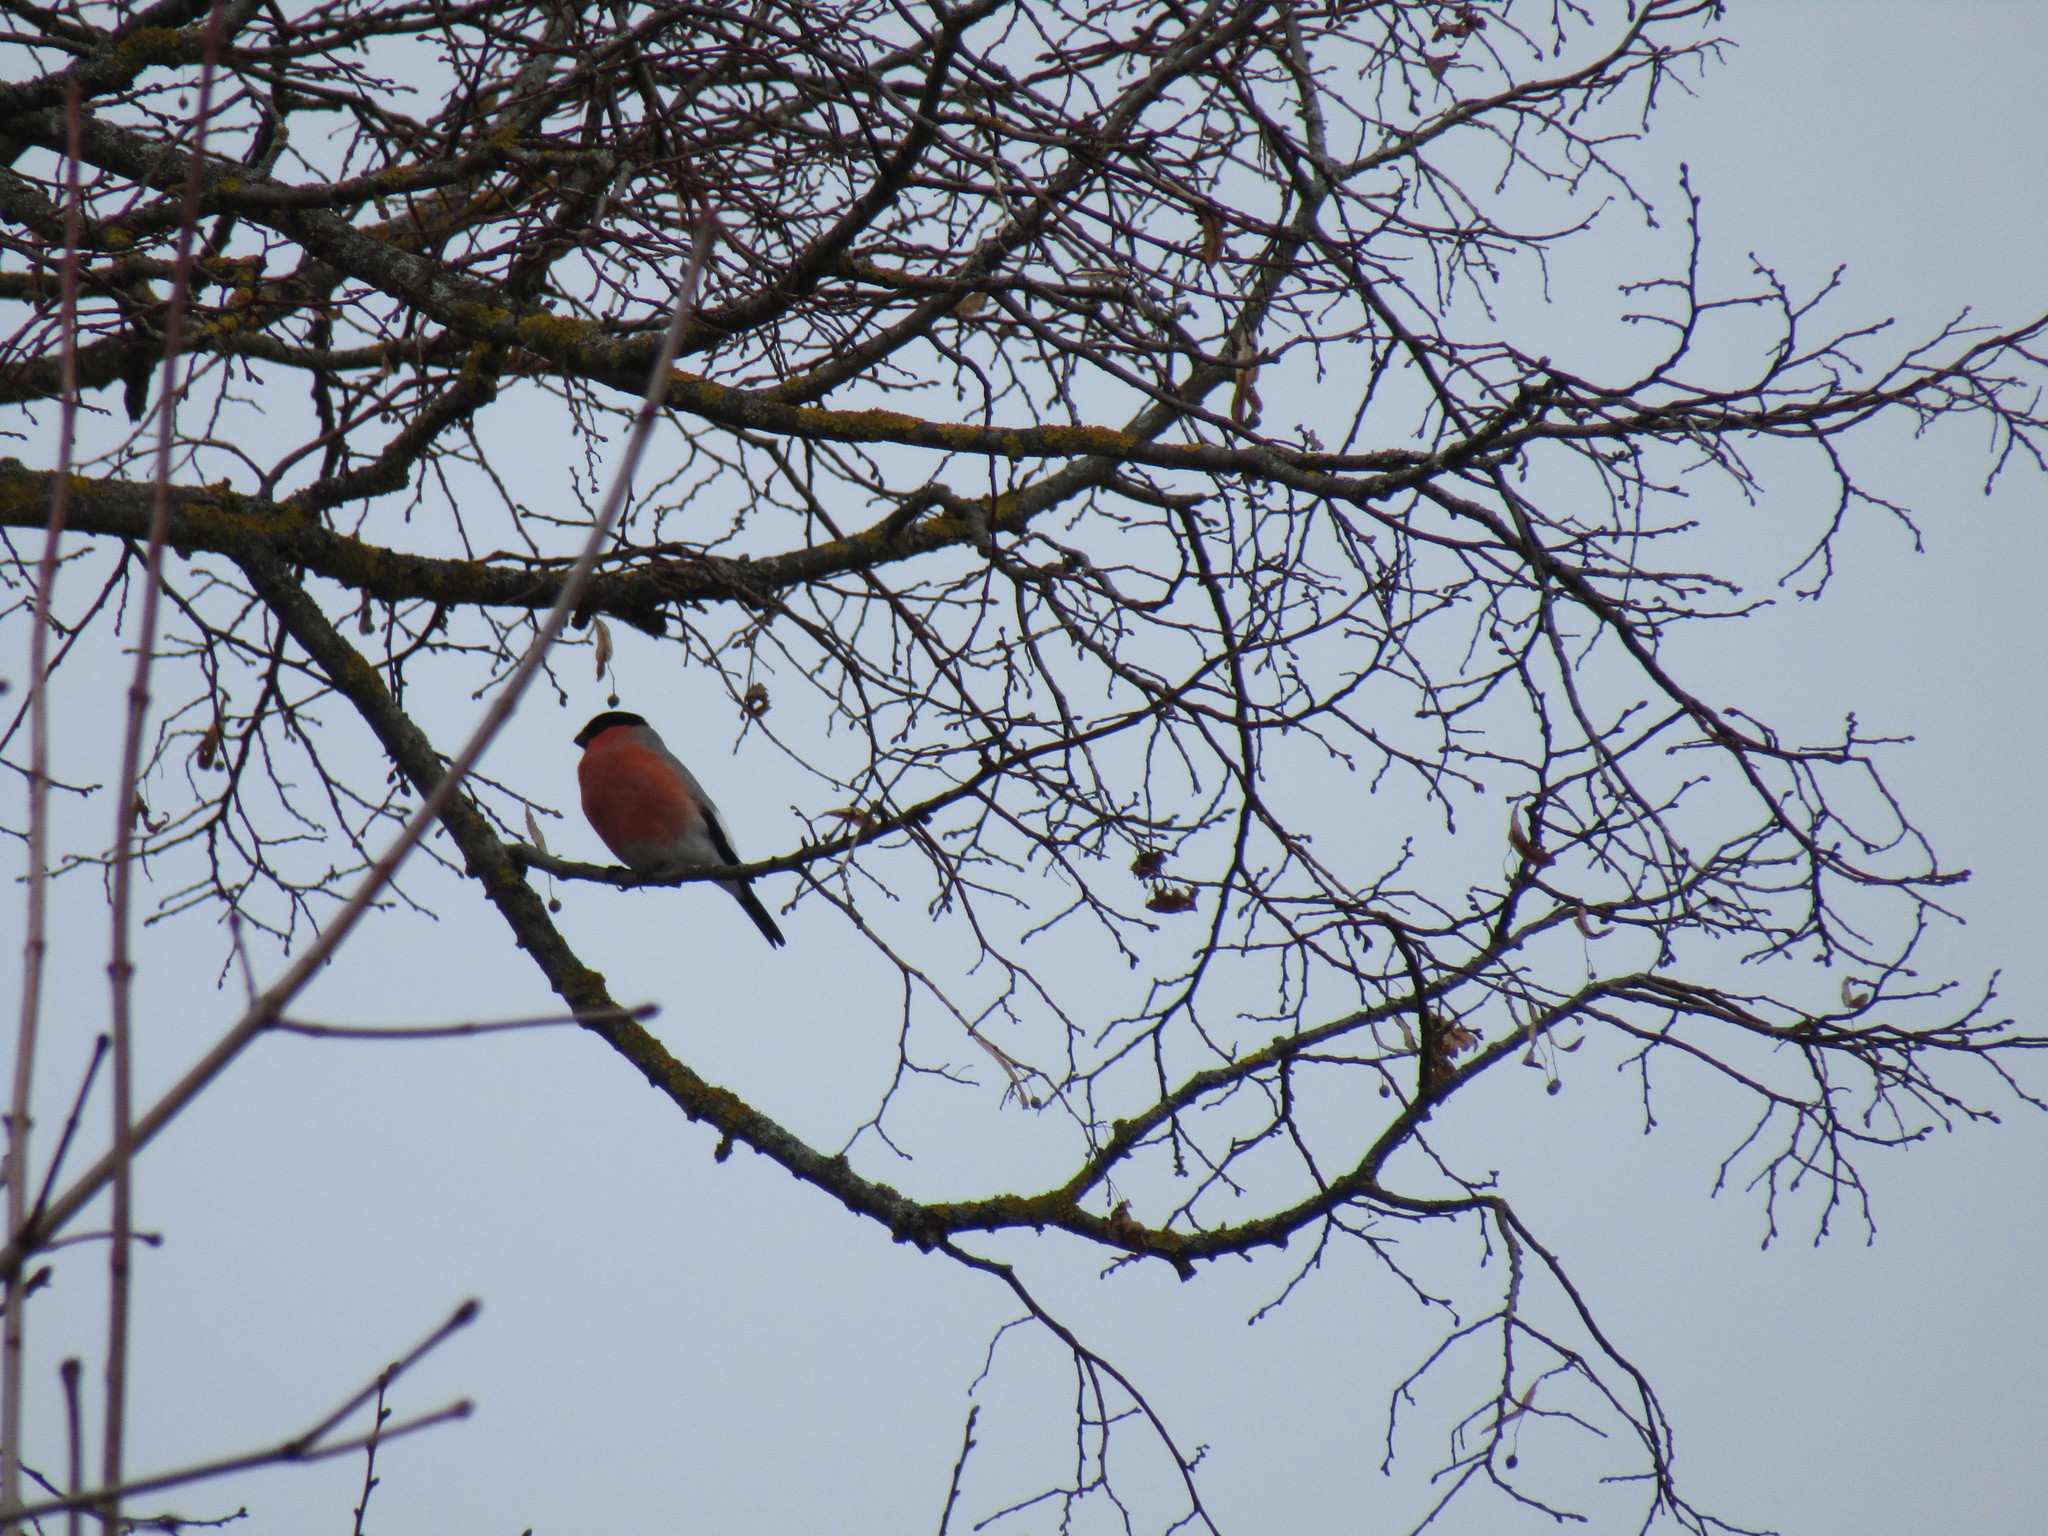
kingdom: Animalia
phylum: Chordata
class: Aves
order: Passeriformes
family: Fringillidae
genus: Pyrrhula
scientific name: Pyrrhula pyrrhula
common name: Eurasian bullfinch
